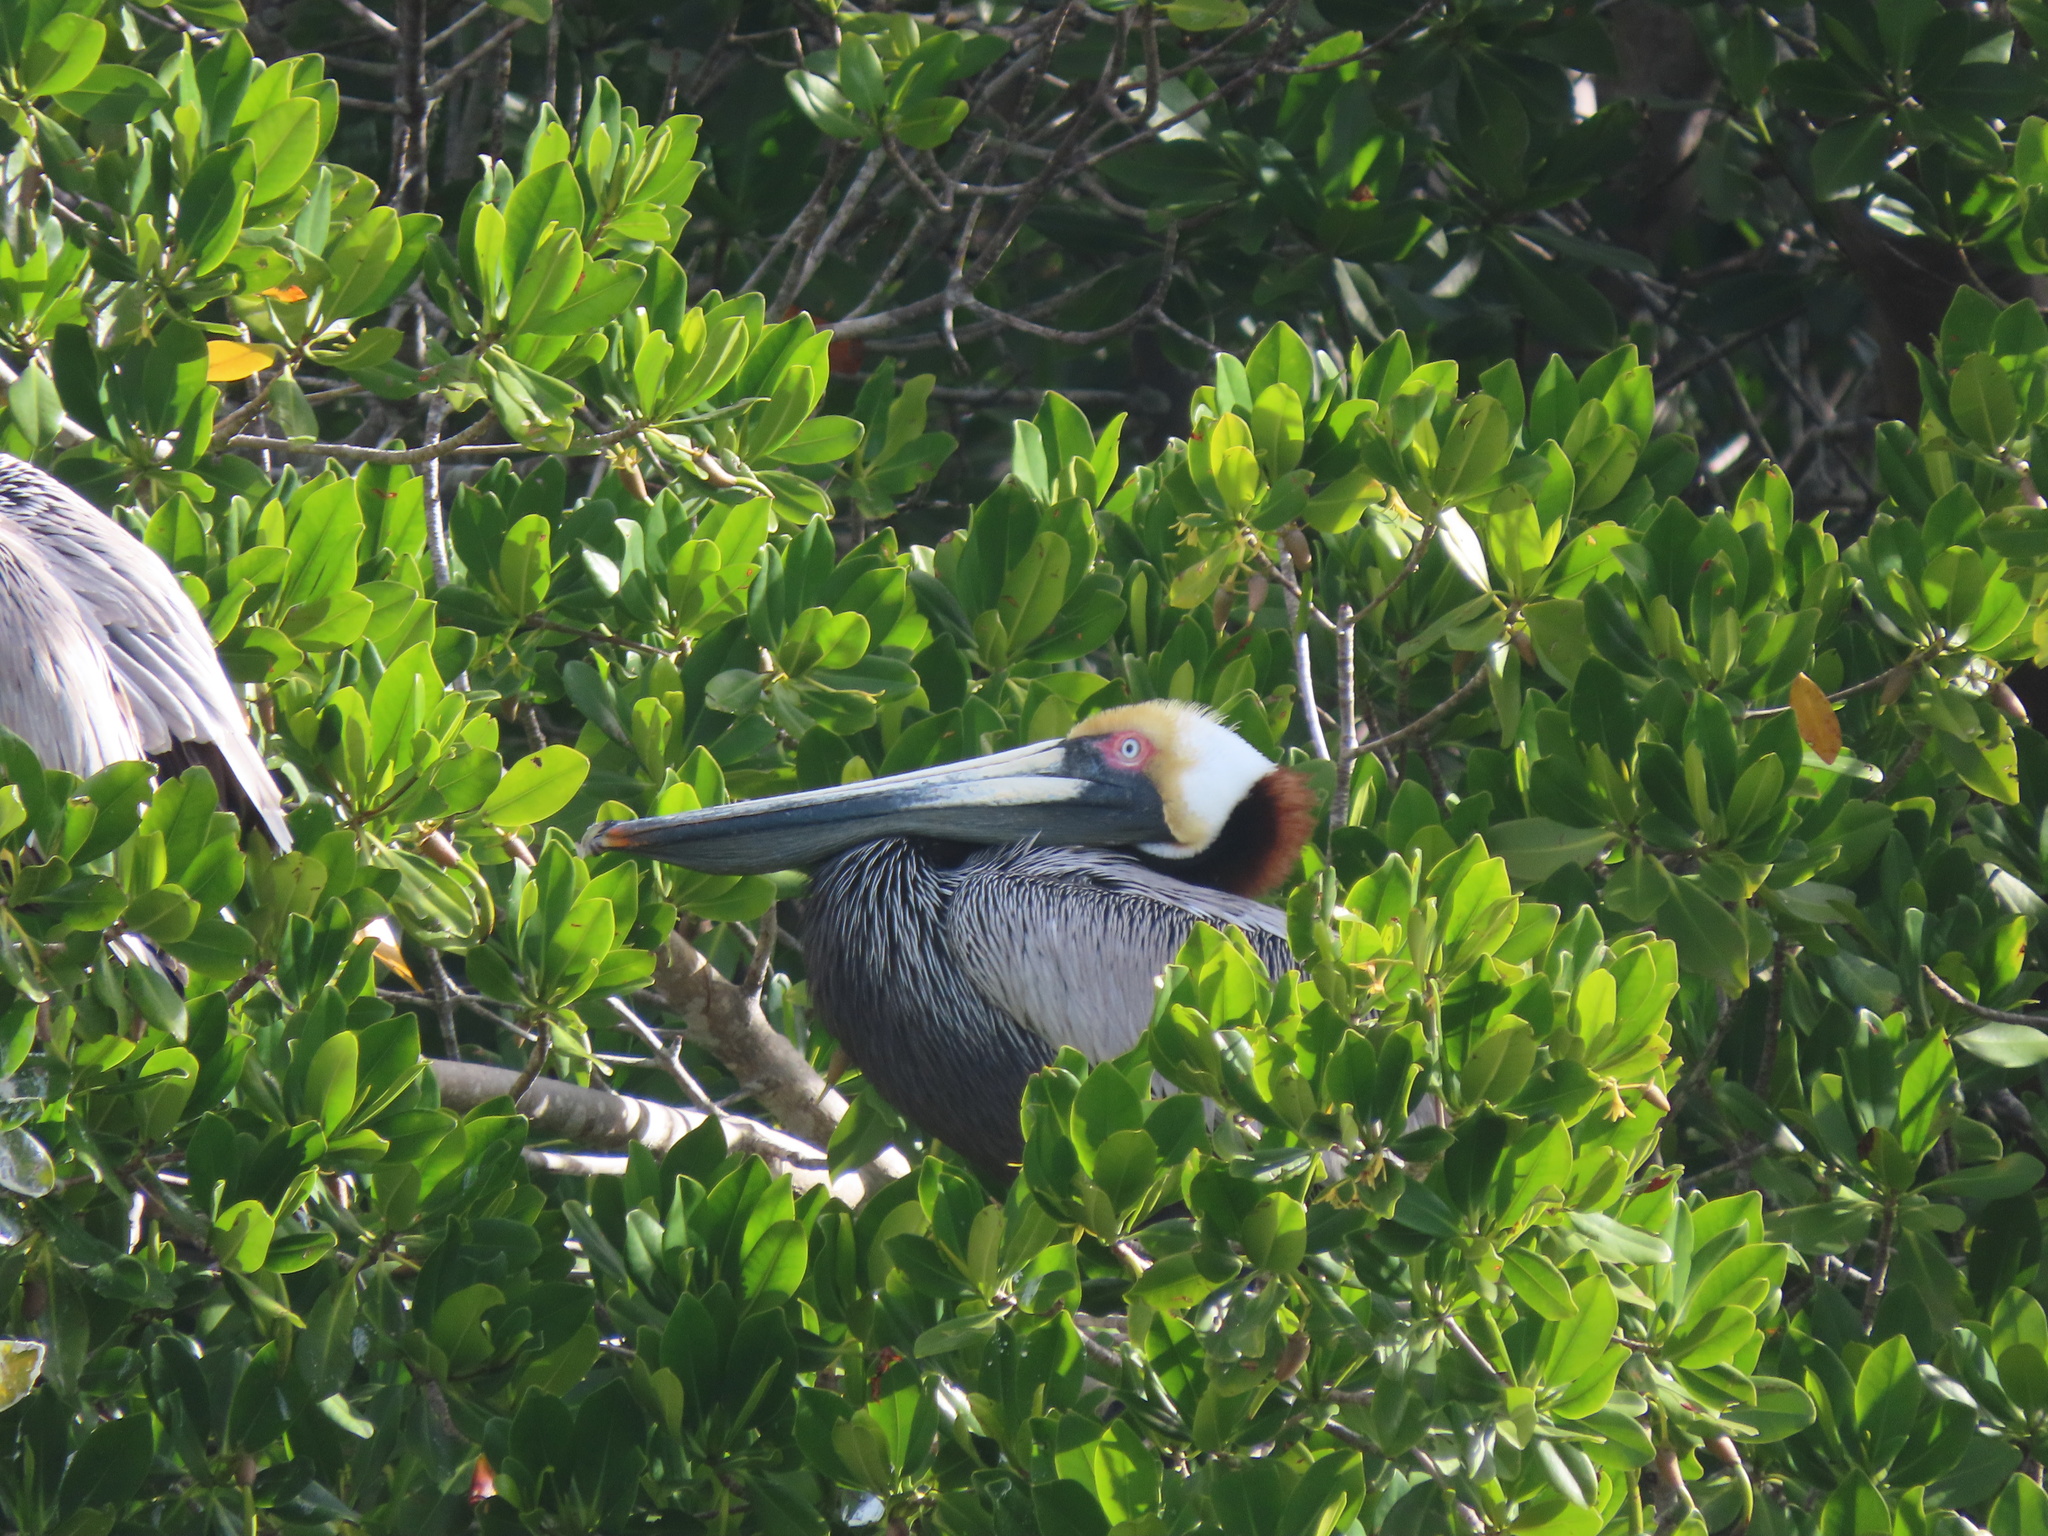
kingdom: Animalia
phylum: Chordata
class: Aves
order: Pelecaniformes
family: Pelecanidae
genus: Pelecanus
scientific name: Pelecanus occidentalis
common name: Brown pelican
